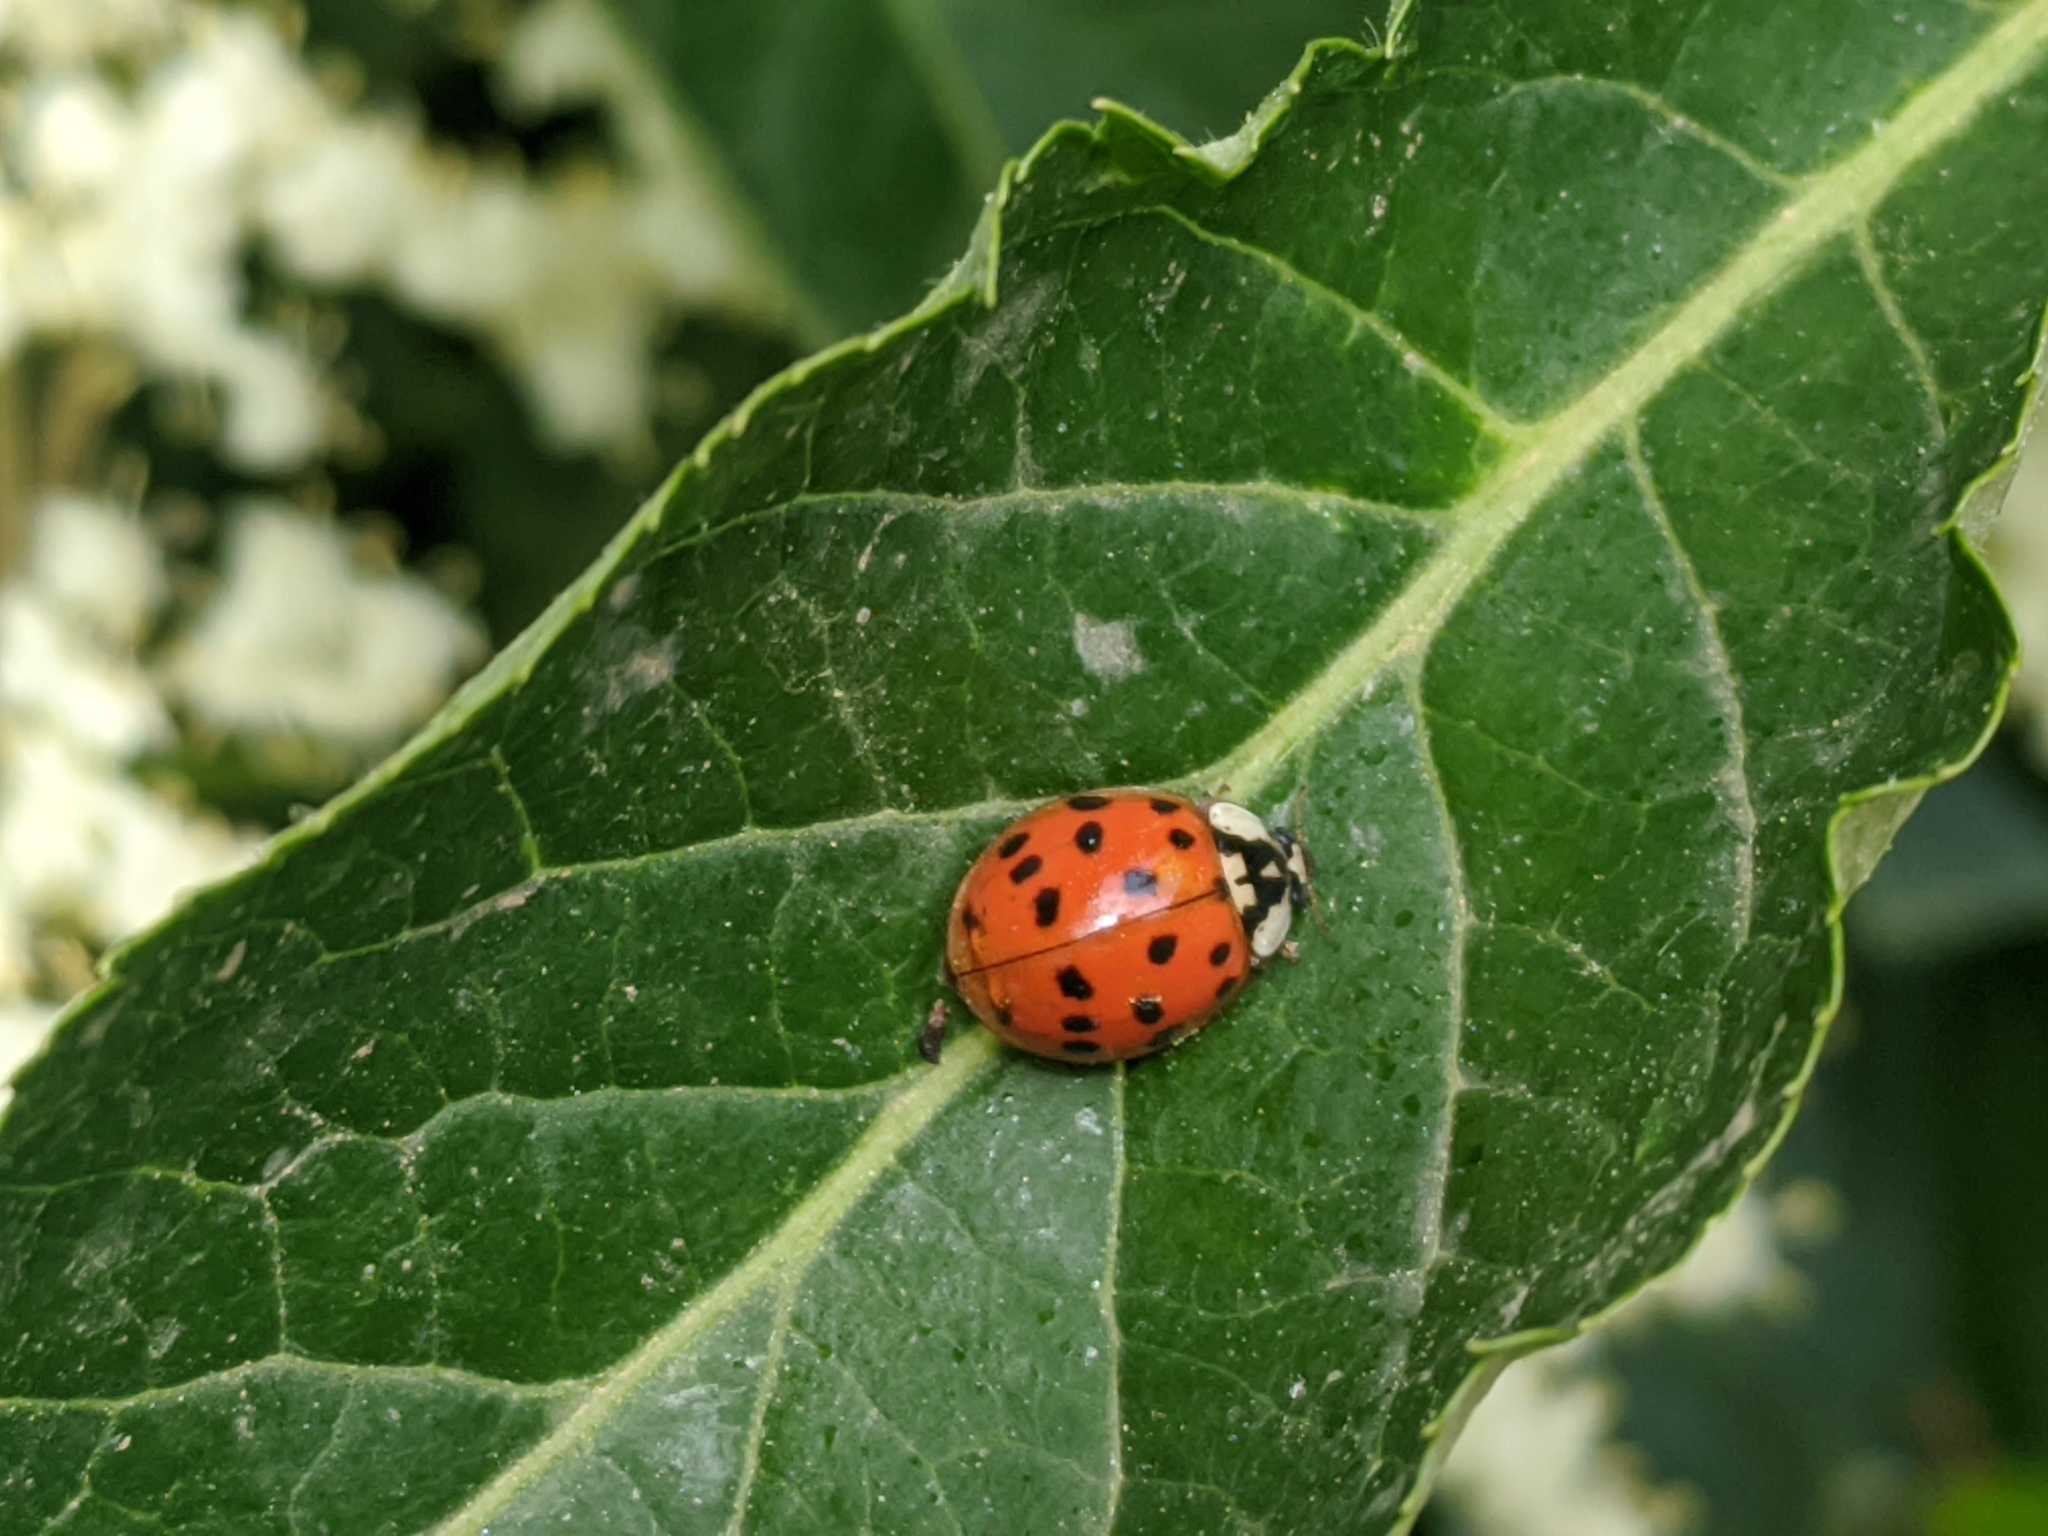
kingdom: Animalia
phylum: Arthropoda
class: Insecta
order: Coleoptera
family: Coccinellidae
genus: Harmonia
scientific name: Harmonia axyridis
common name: Harlequin ladybird
